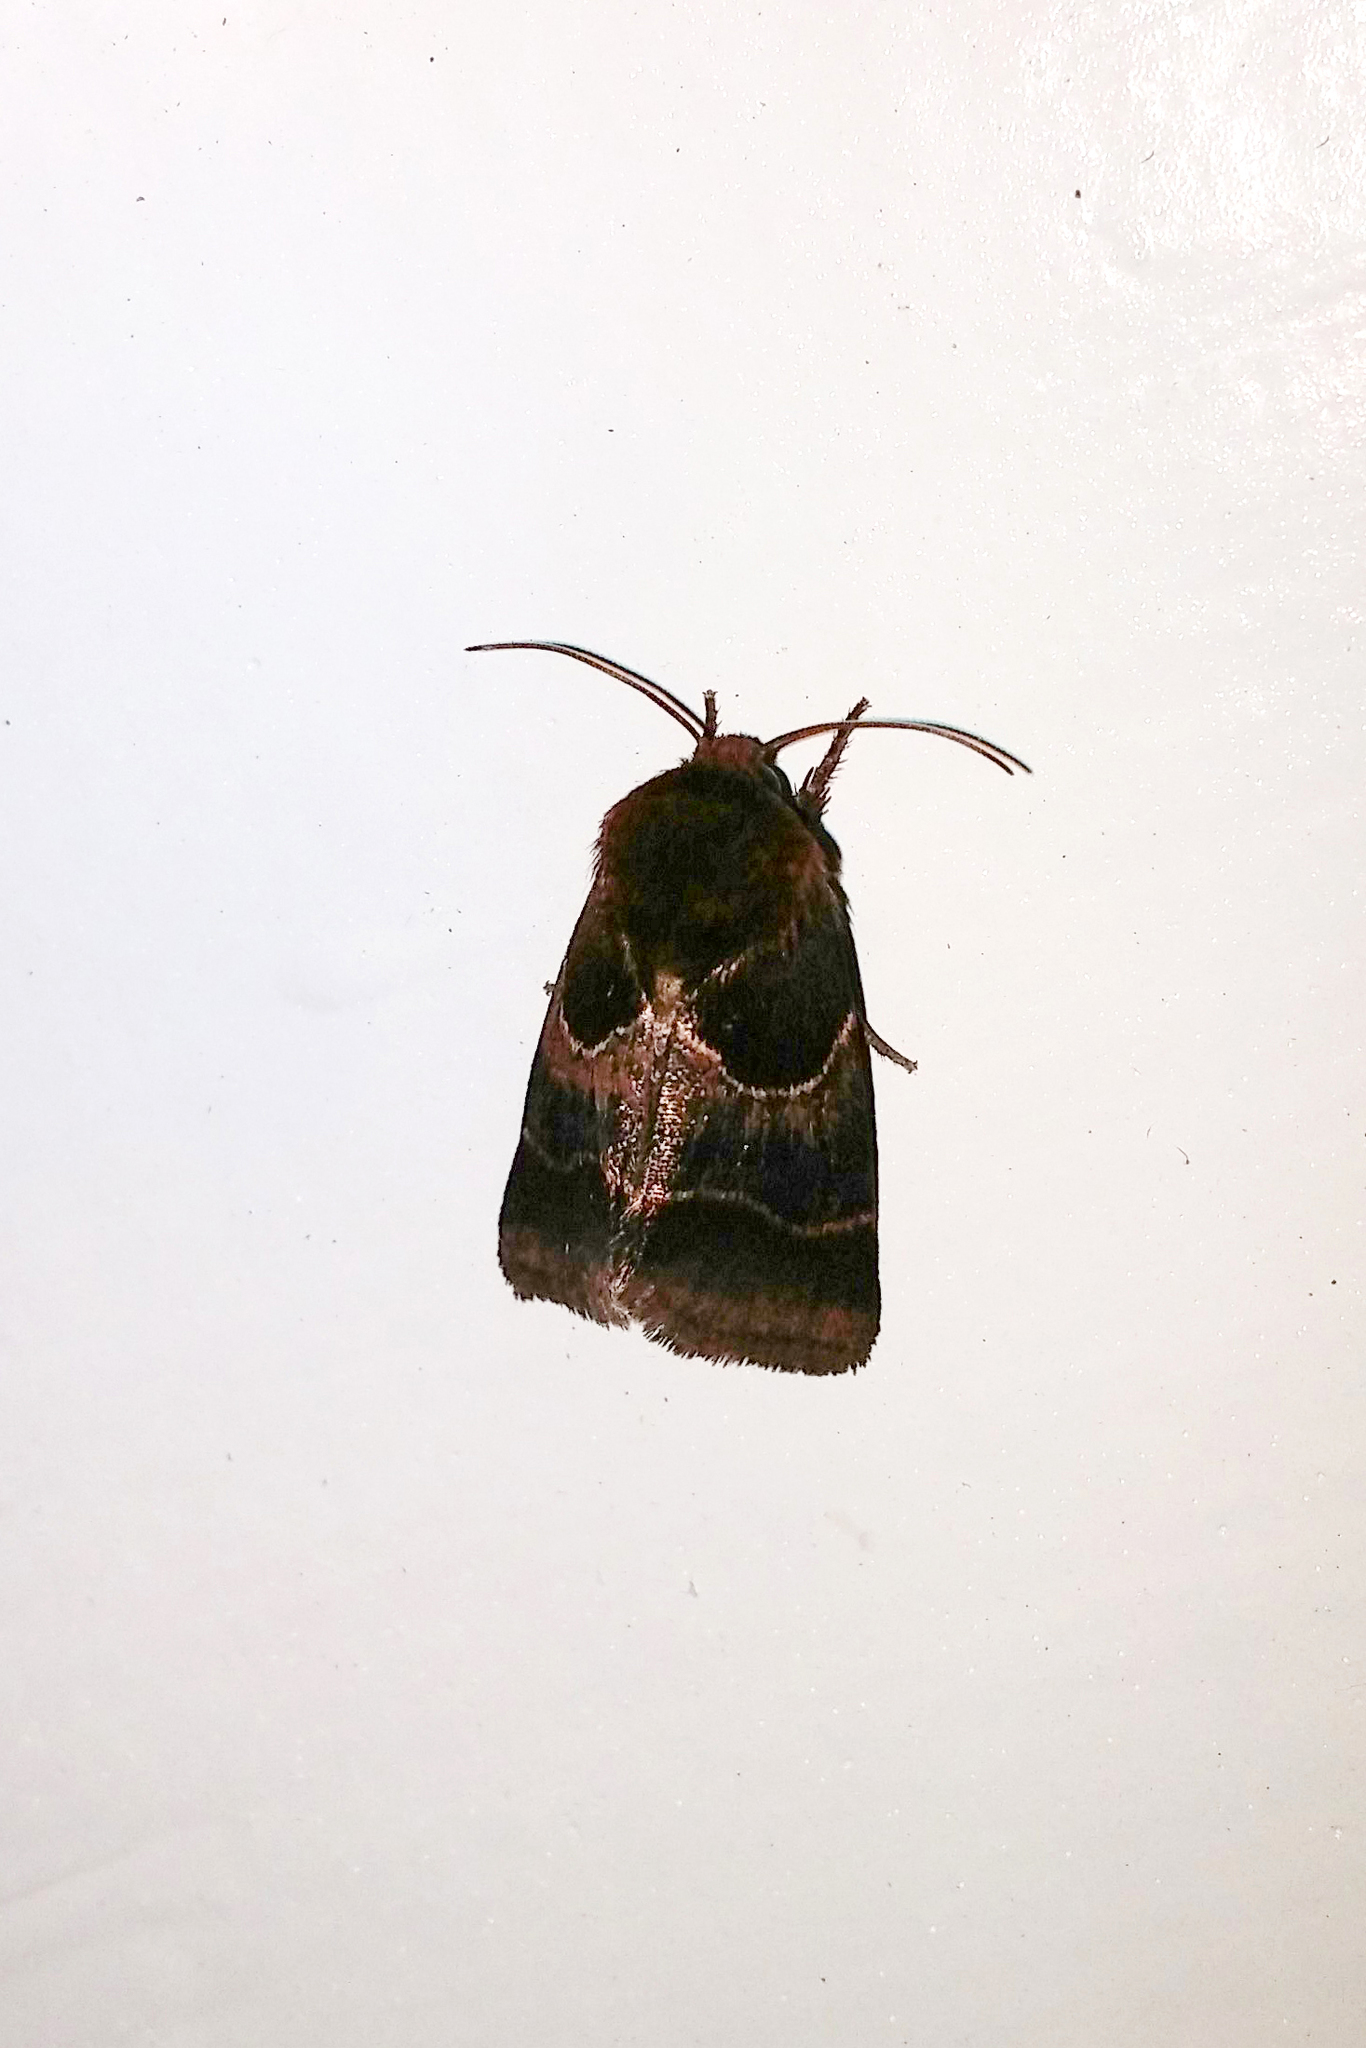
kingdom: Animalia
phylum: Arthropoda
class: Insecta
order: Lepidoptera
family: Noctuidae
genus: Schinia
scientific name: Schinia arcigera
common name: Arcigera flower moth
